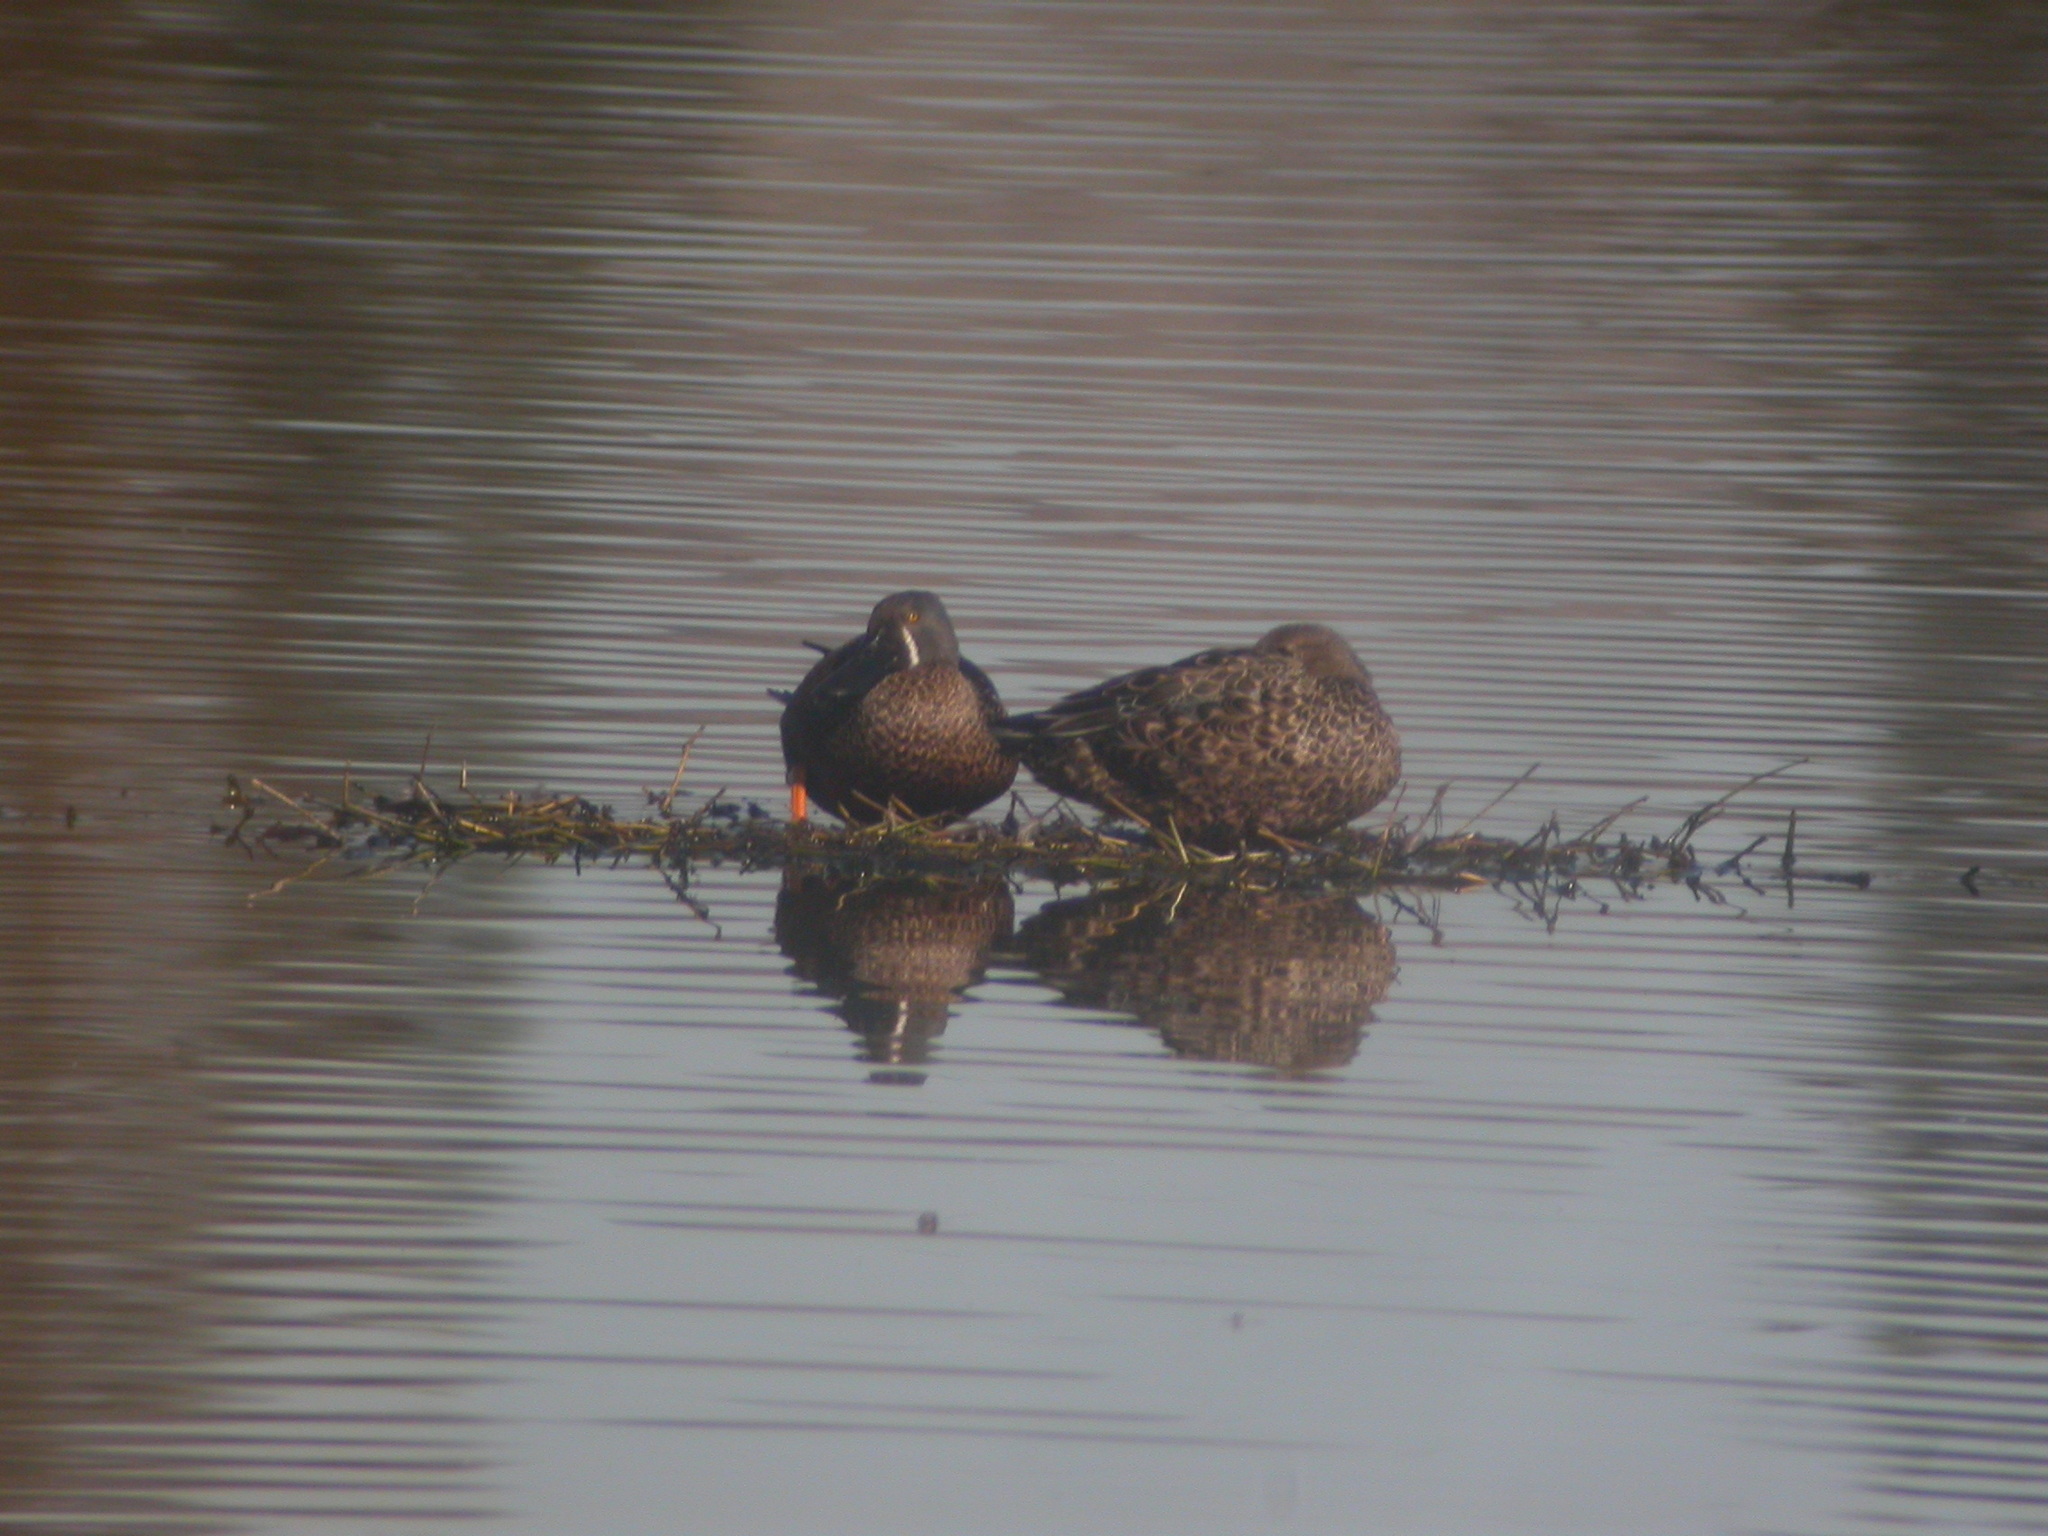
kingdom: Animalia
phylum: Chordata
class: Aves
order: Anseriformes
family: Anatidae
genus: Spatula
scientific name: Spatula rhynchotis
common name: Australian shoveler
